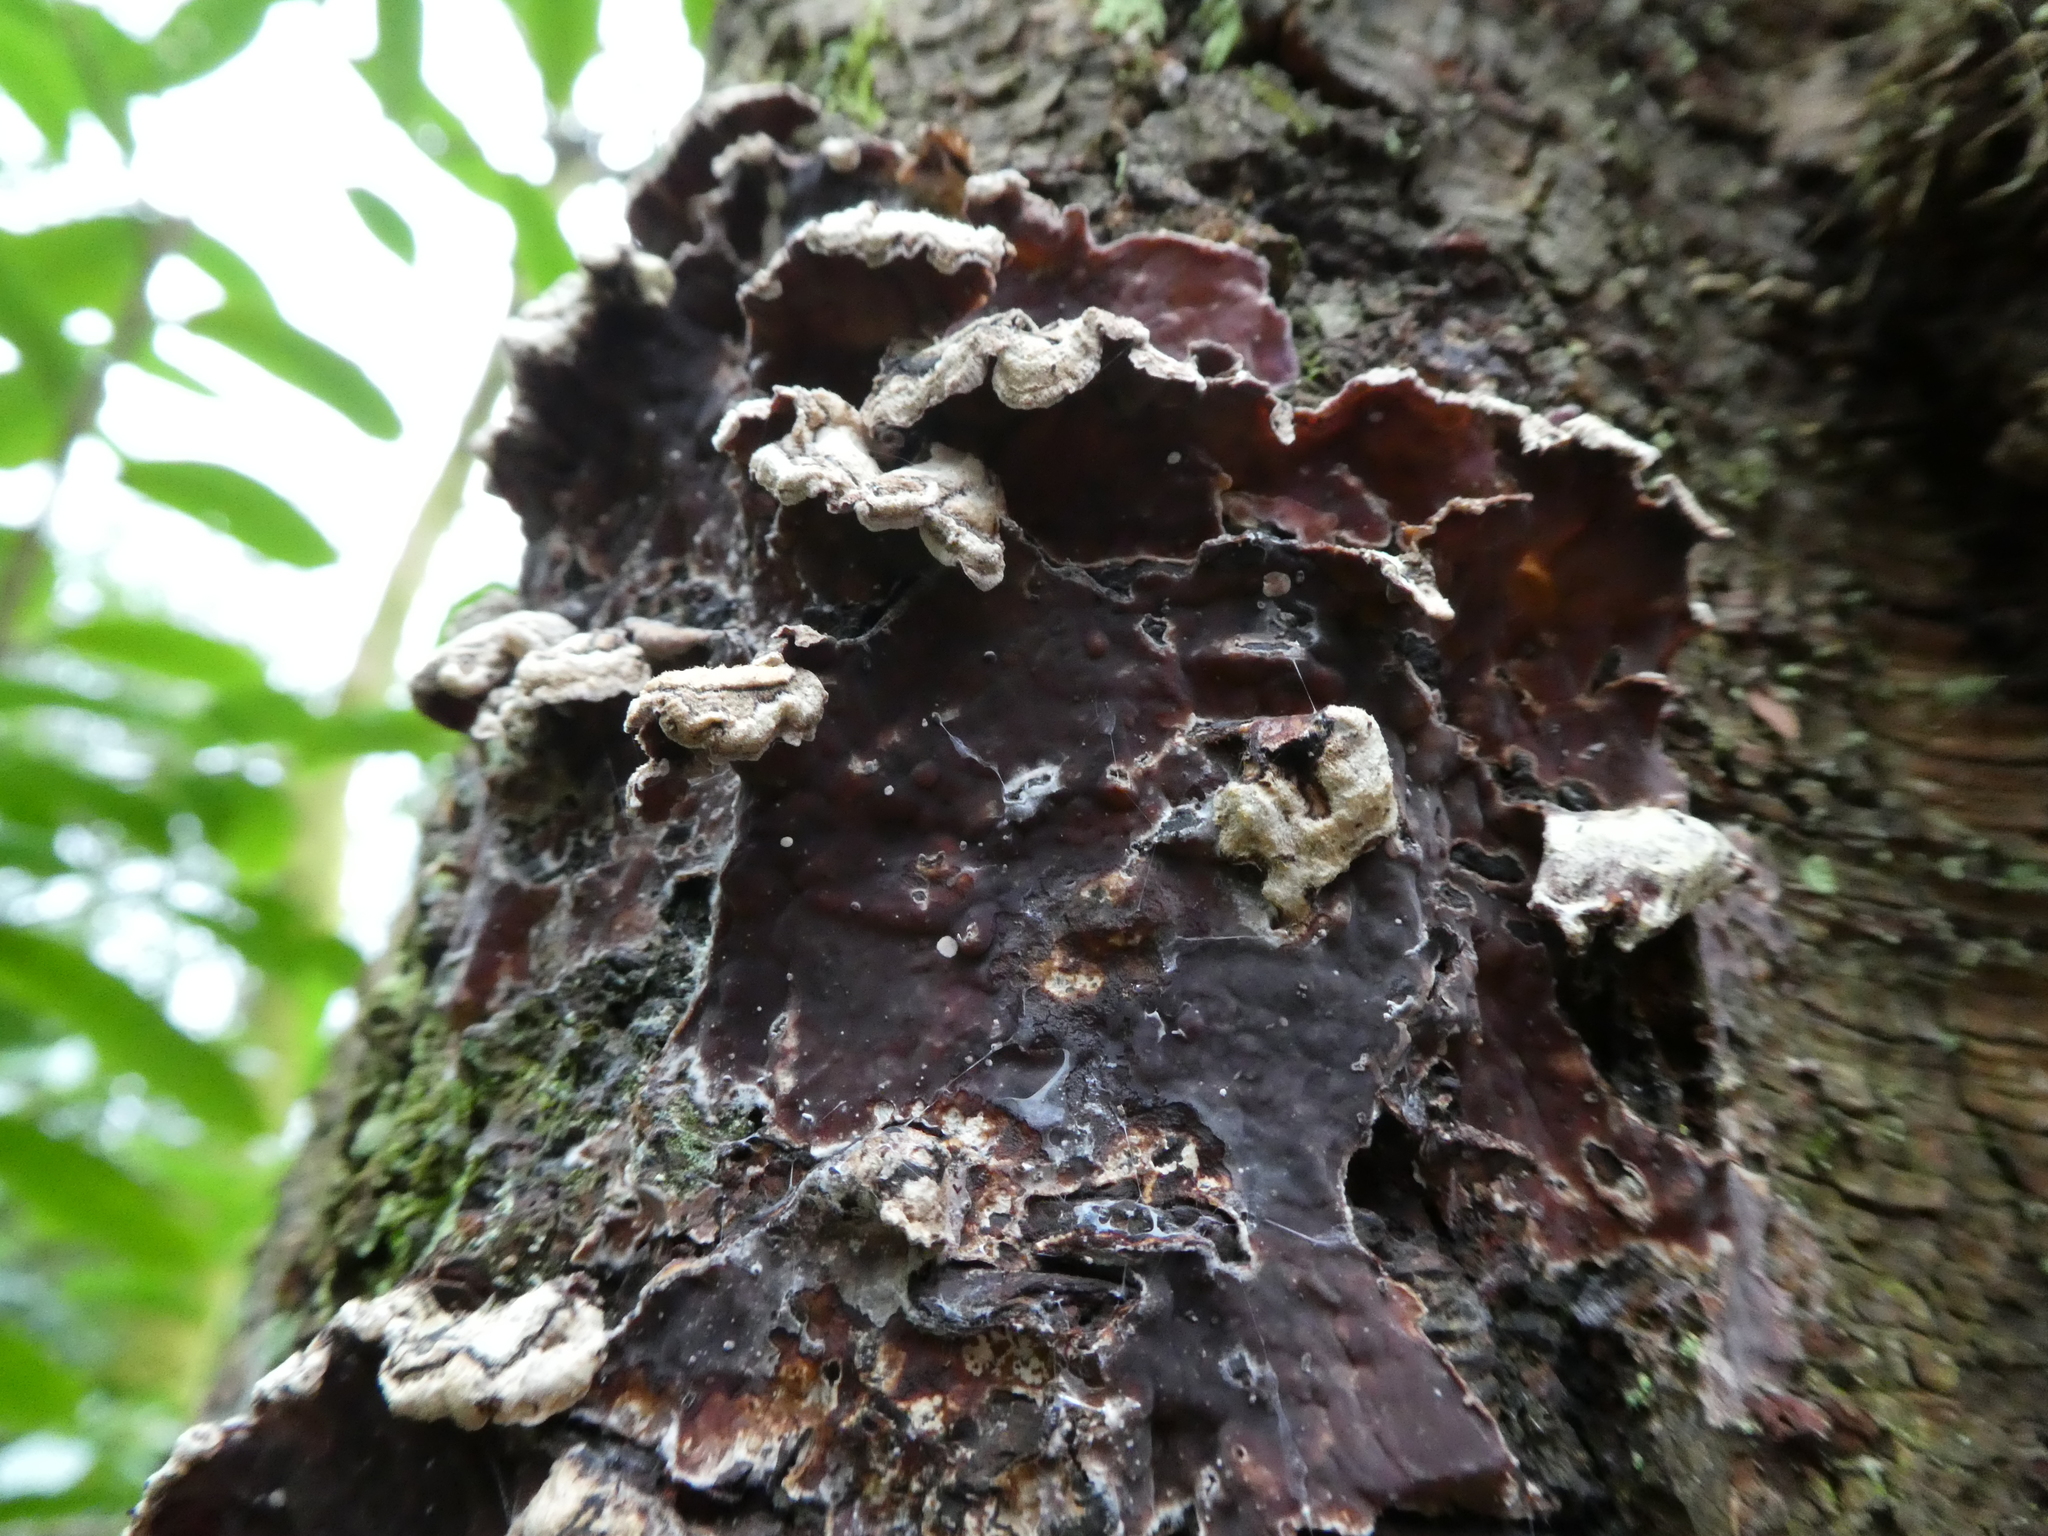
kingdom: Fungi
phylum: Basidiomycota
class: Agaricomycetes
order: Agaricales
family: Cyphellaceae
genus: Chondrostereum
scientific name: Chondrostereum purpureum
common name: Silver leaf disease
